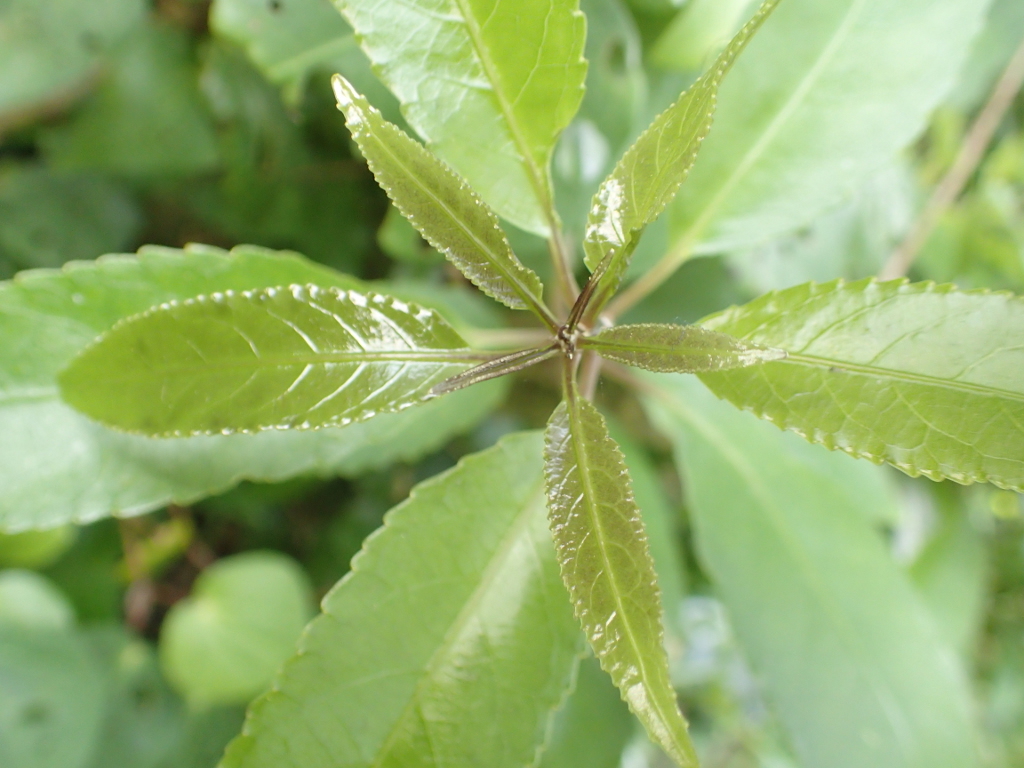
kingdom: Plantae
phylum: Tracheophyta
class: Magnoliopsida
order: Malpighiales
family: Violaceae
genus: Melicytus
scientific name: Melicytus ramiflorus
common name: Mahoe
